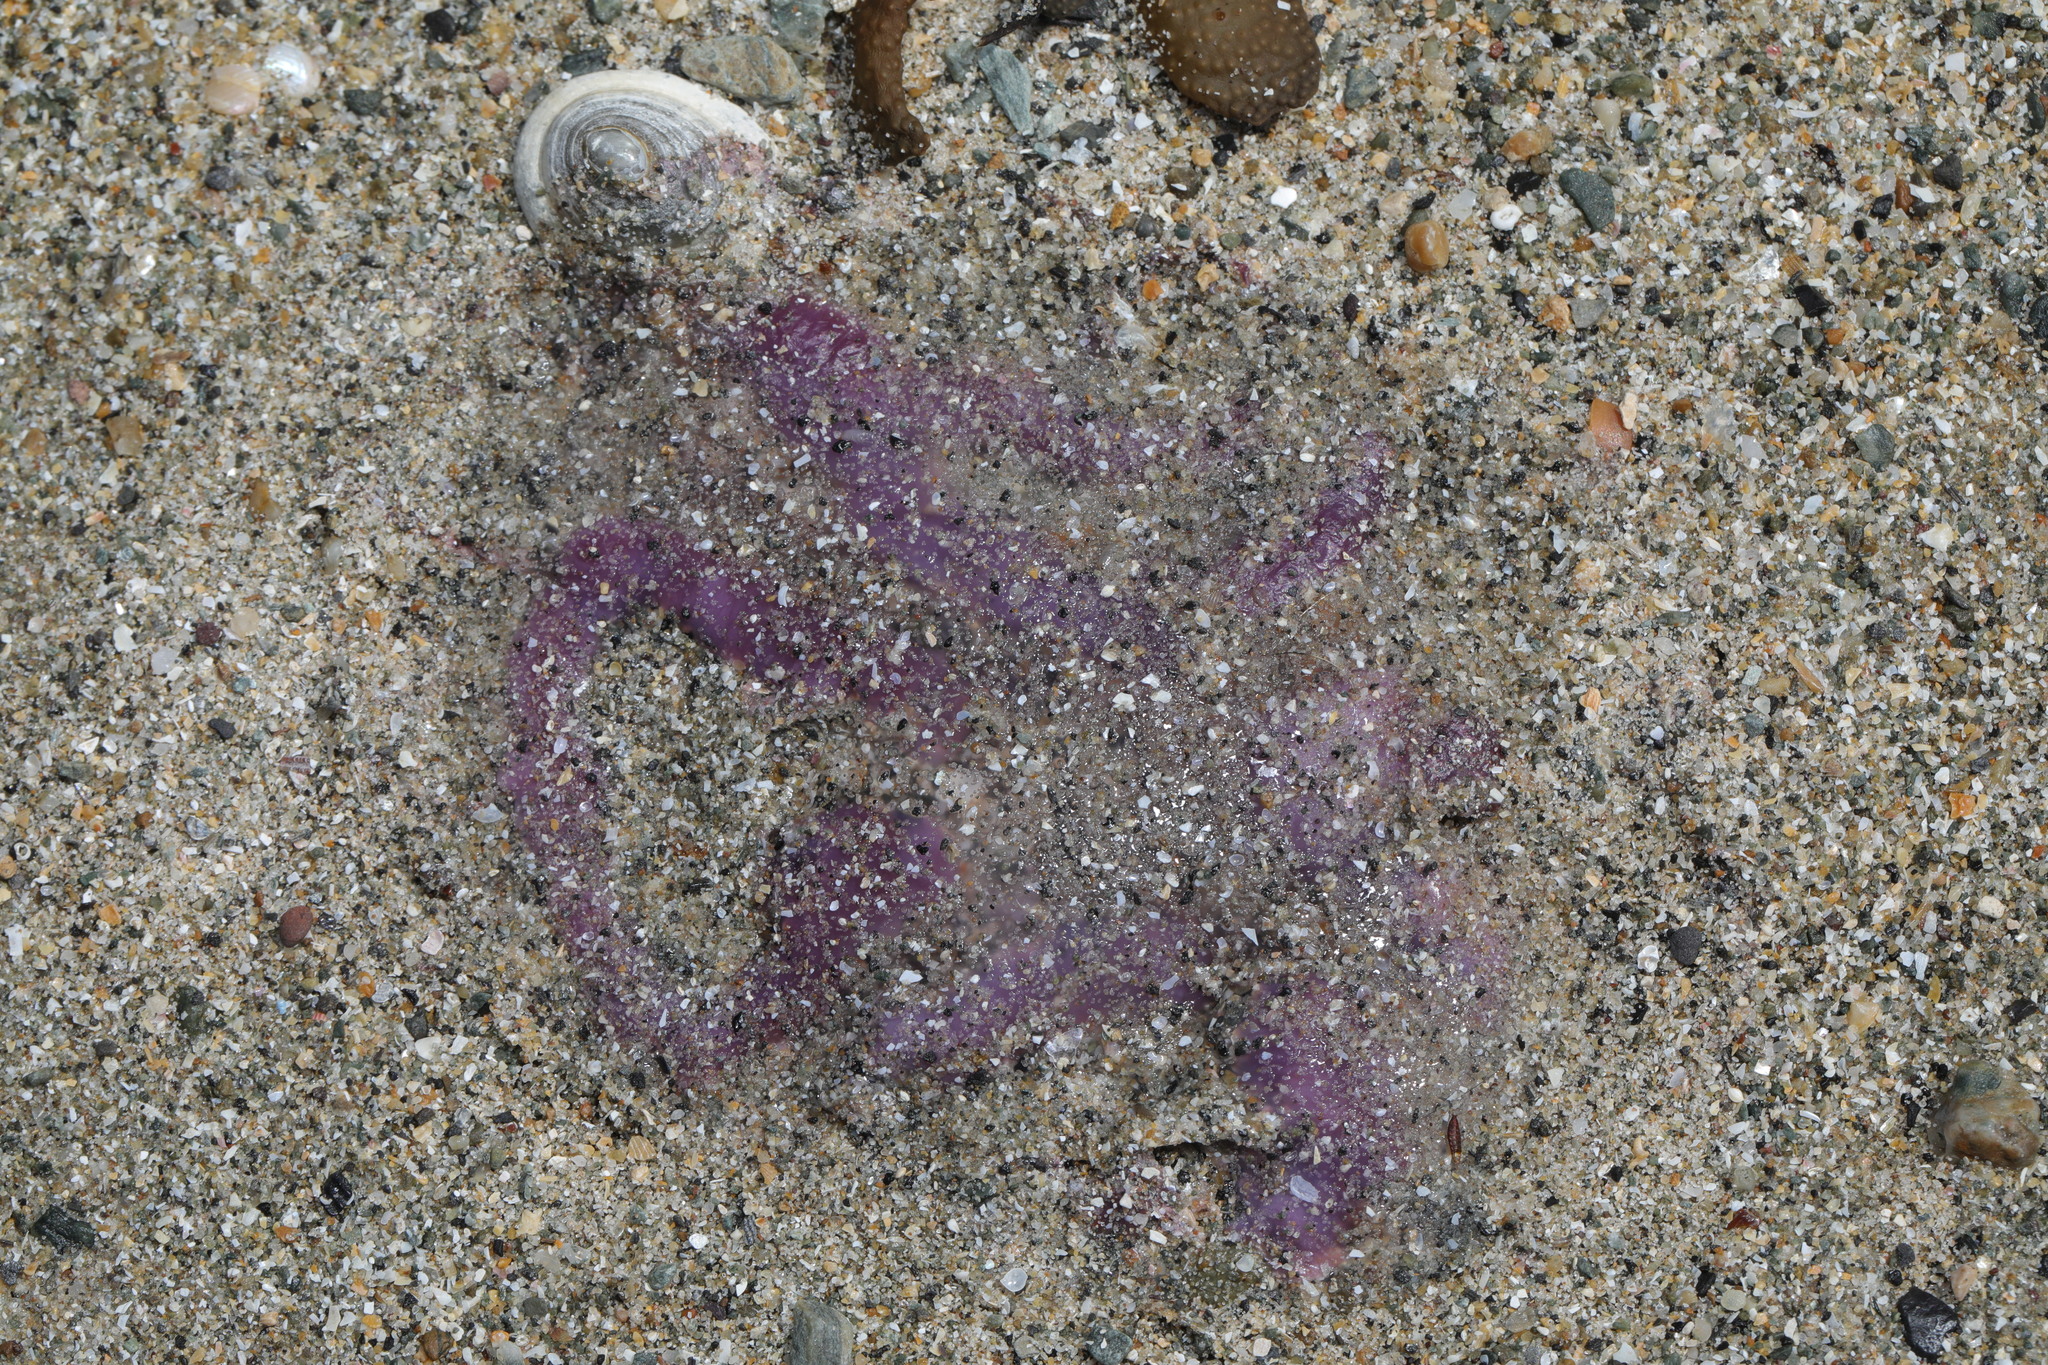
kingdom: Animalia
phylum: Cnidaria
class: Scyphozoa
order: Semaeostomeae
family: Ulmaridae
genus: Aurelia
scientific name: Aurelia aurita
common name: Moon jellyfish
